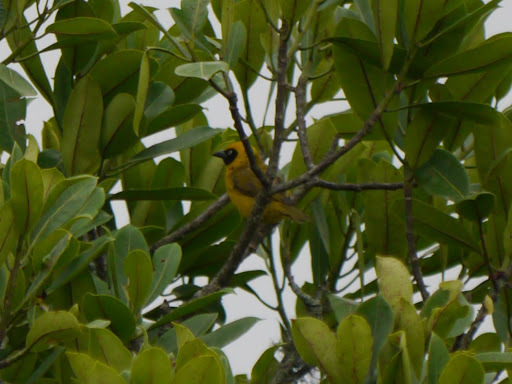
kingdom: Animalia
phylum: Chordata
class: Aves
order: Passeriformes
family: Ploceidae
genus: Ploceus
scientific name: Ploceus bannermani
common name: Bannerman's weaver
